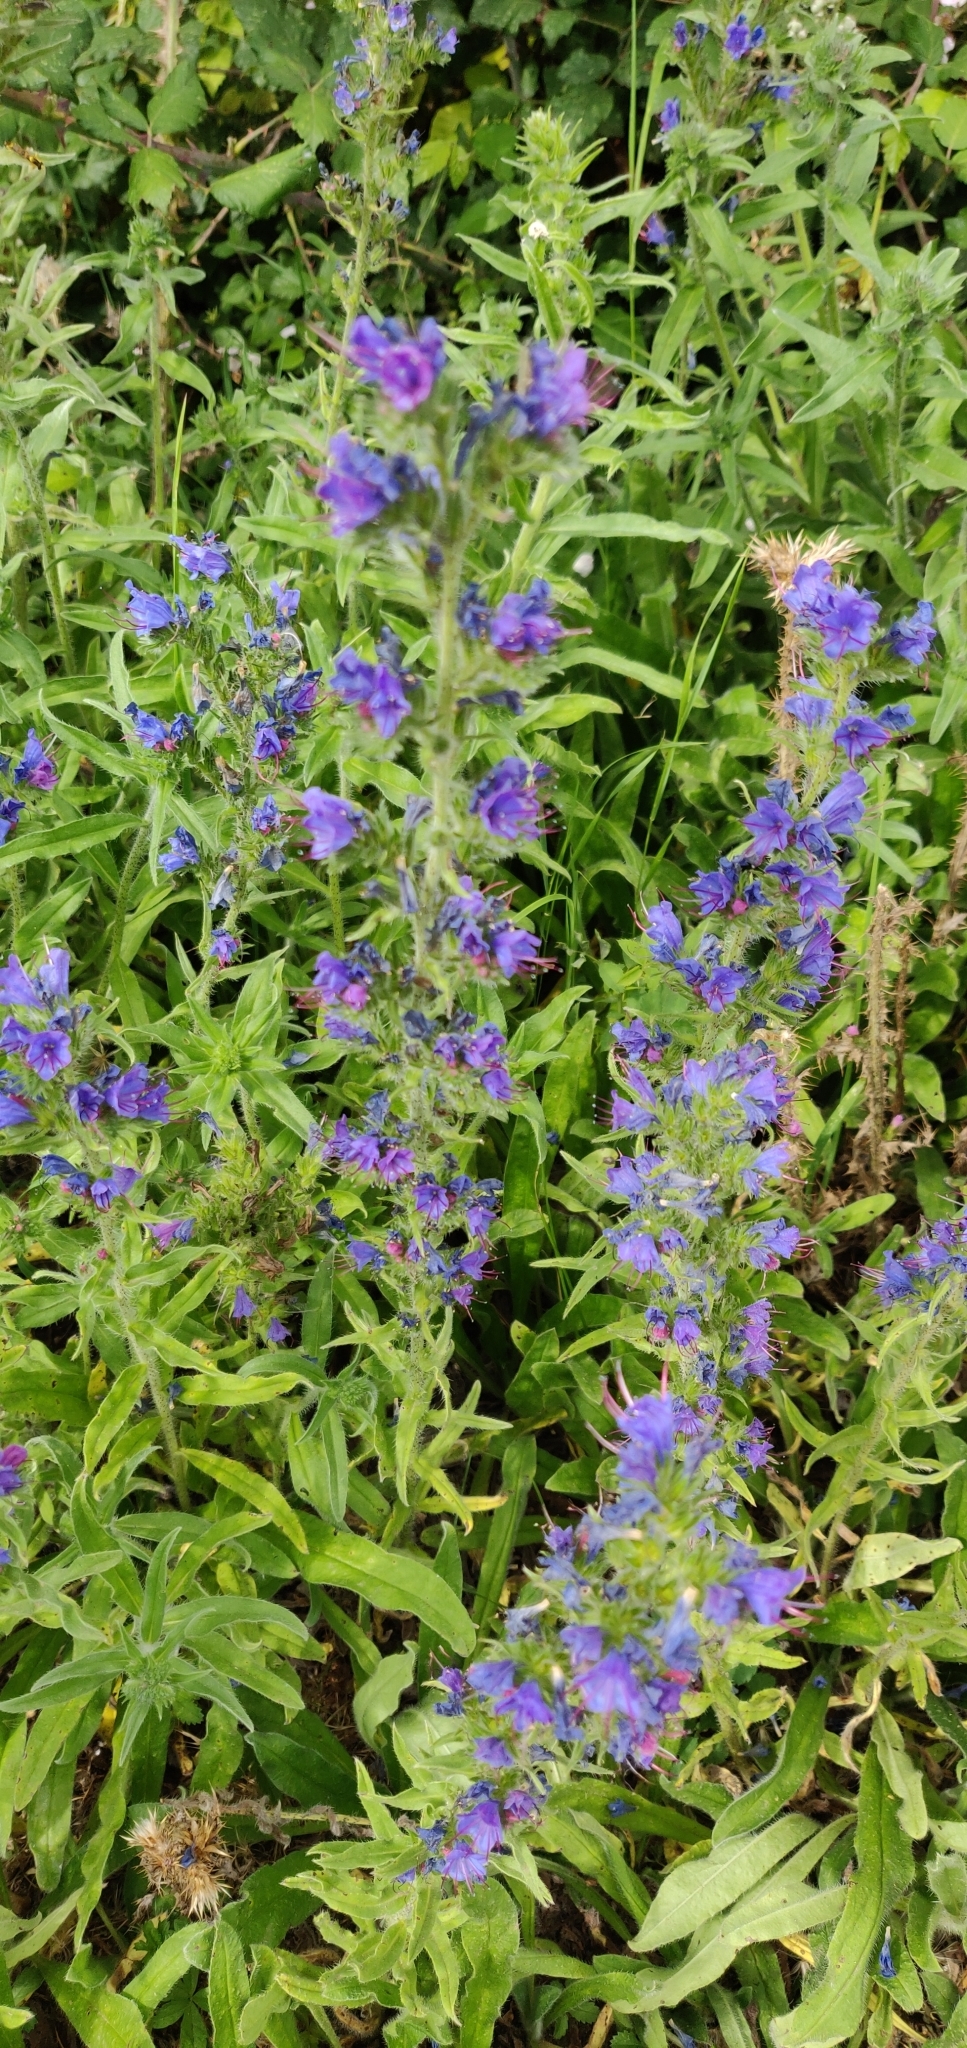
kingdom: Plantae
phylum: Tracheophyta
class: Magnoliopsida
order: Boraginales
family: Boraginaceae
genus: Echium
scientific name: Echium vulgare
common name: Common viper's bugloss
